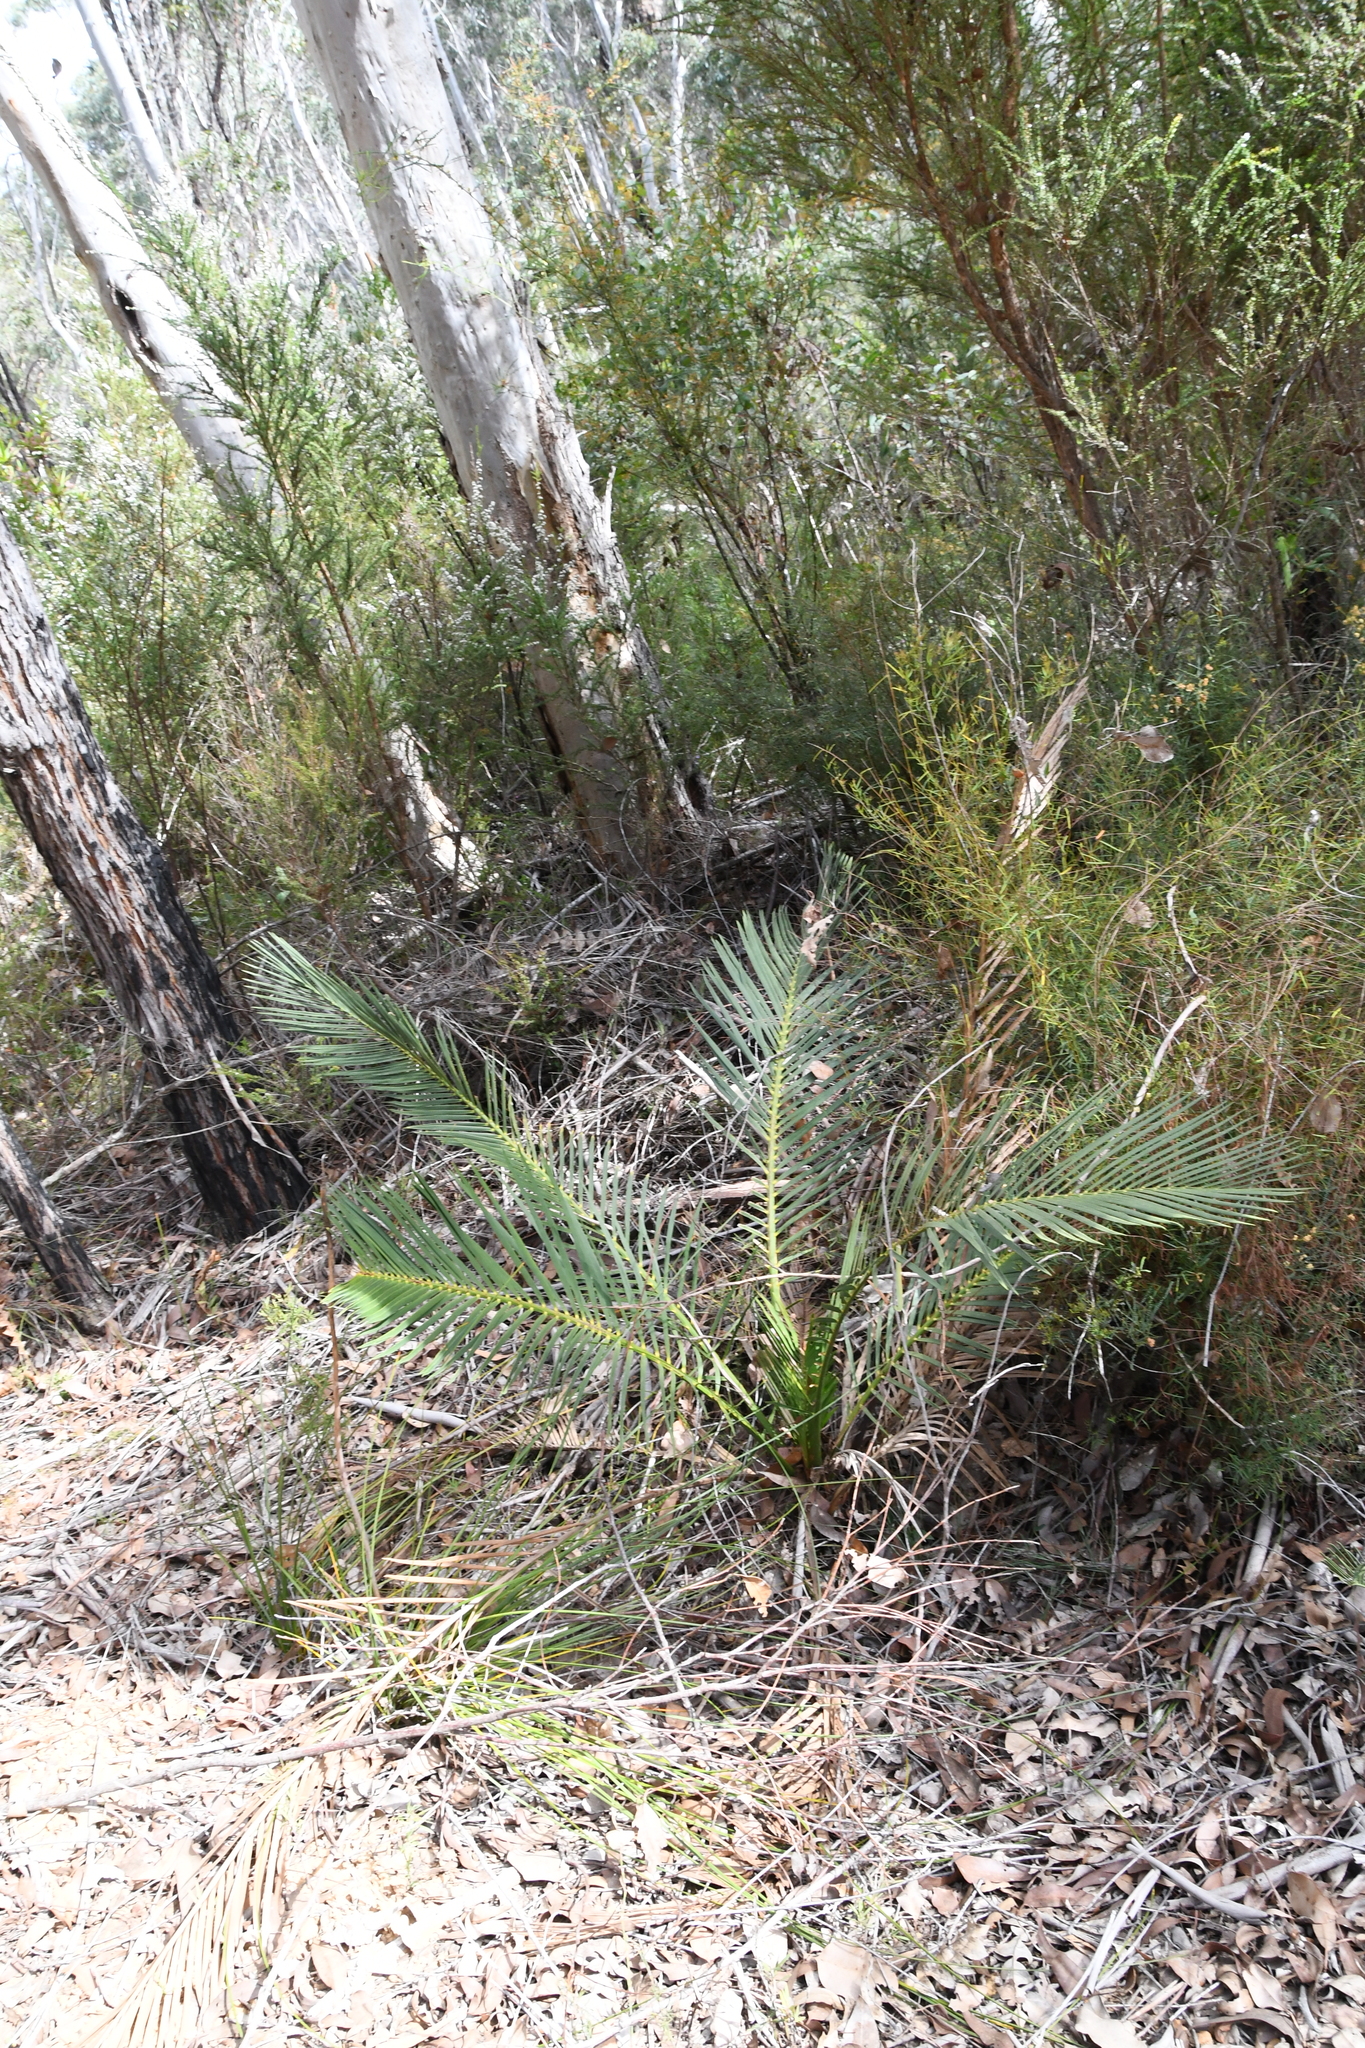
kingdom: Plantae
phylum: Tracheophyta
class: Cycadopsida
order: Cycadales
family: Zamiaceae
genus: Macrozamia
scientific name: Macrozamia riedlei
